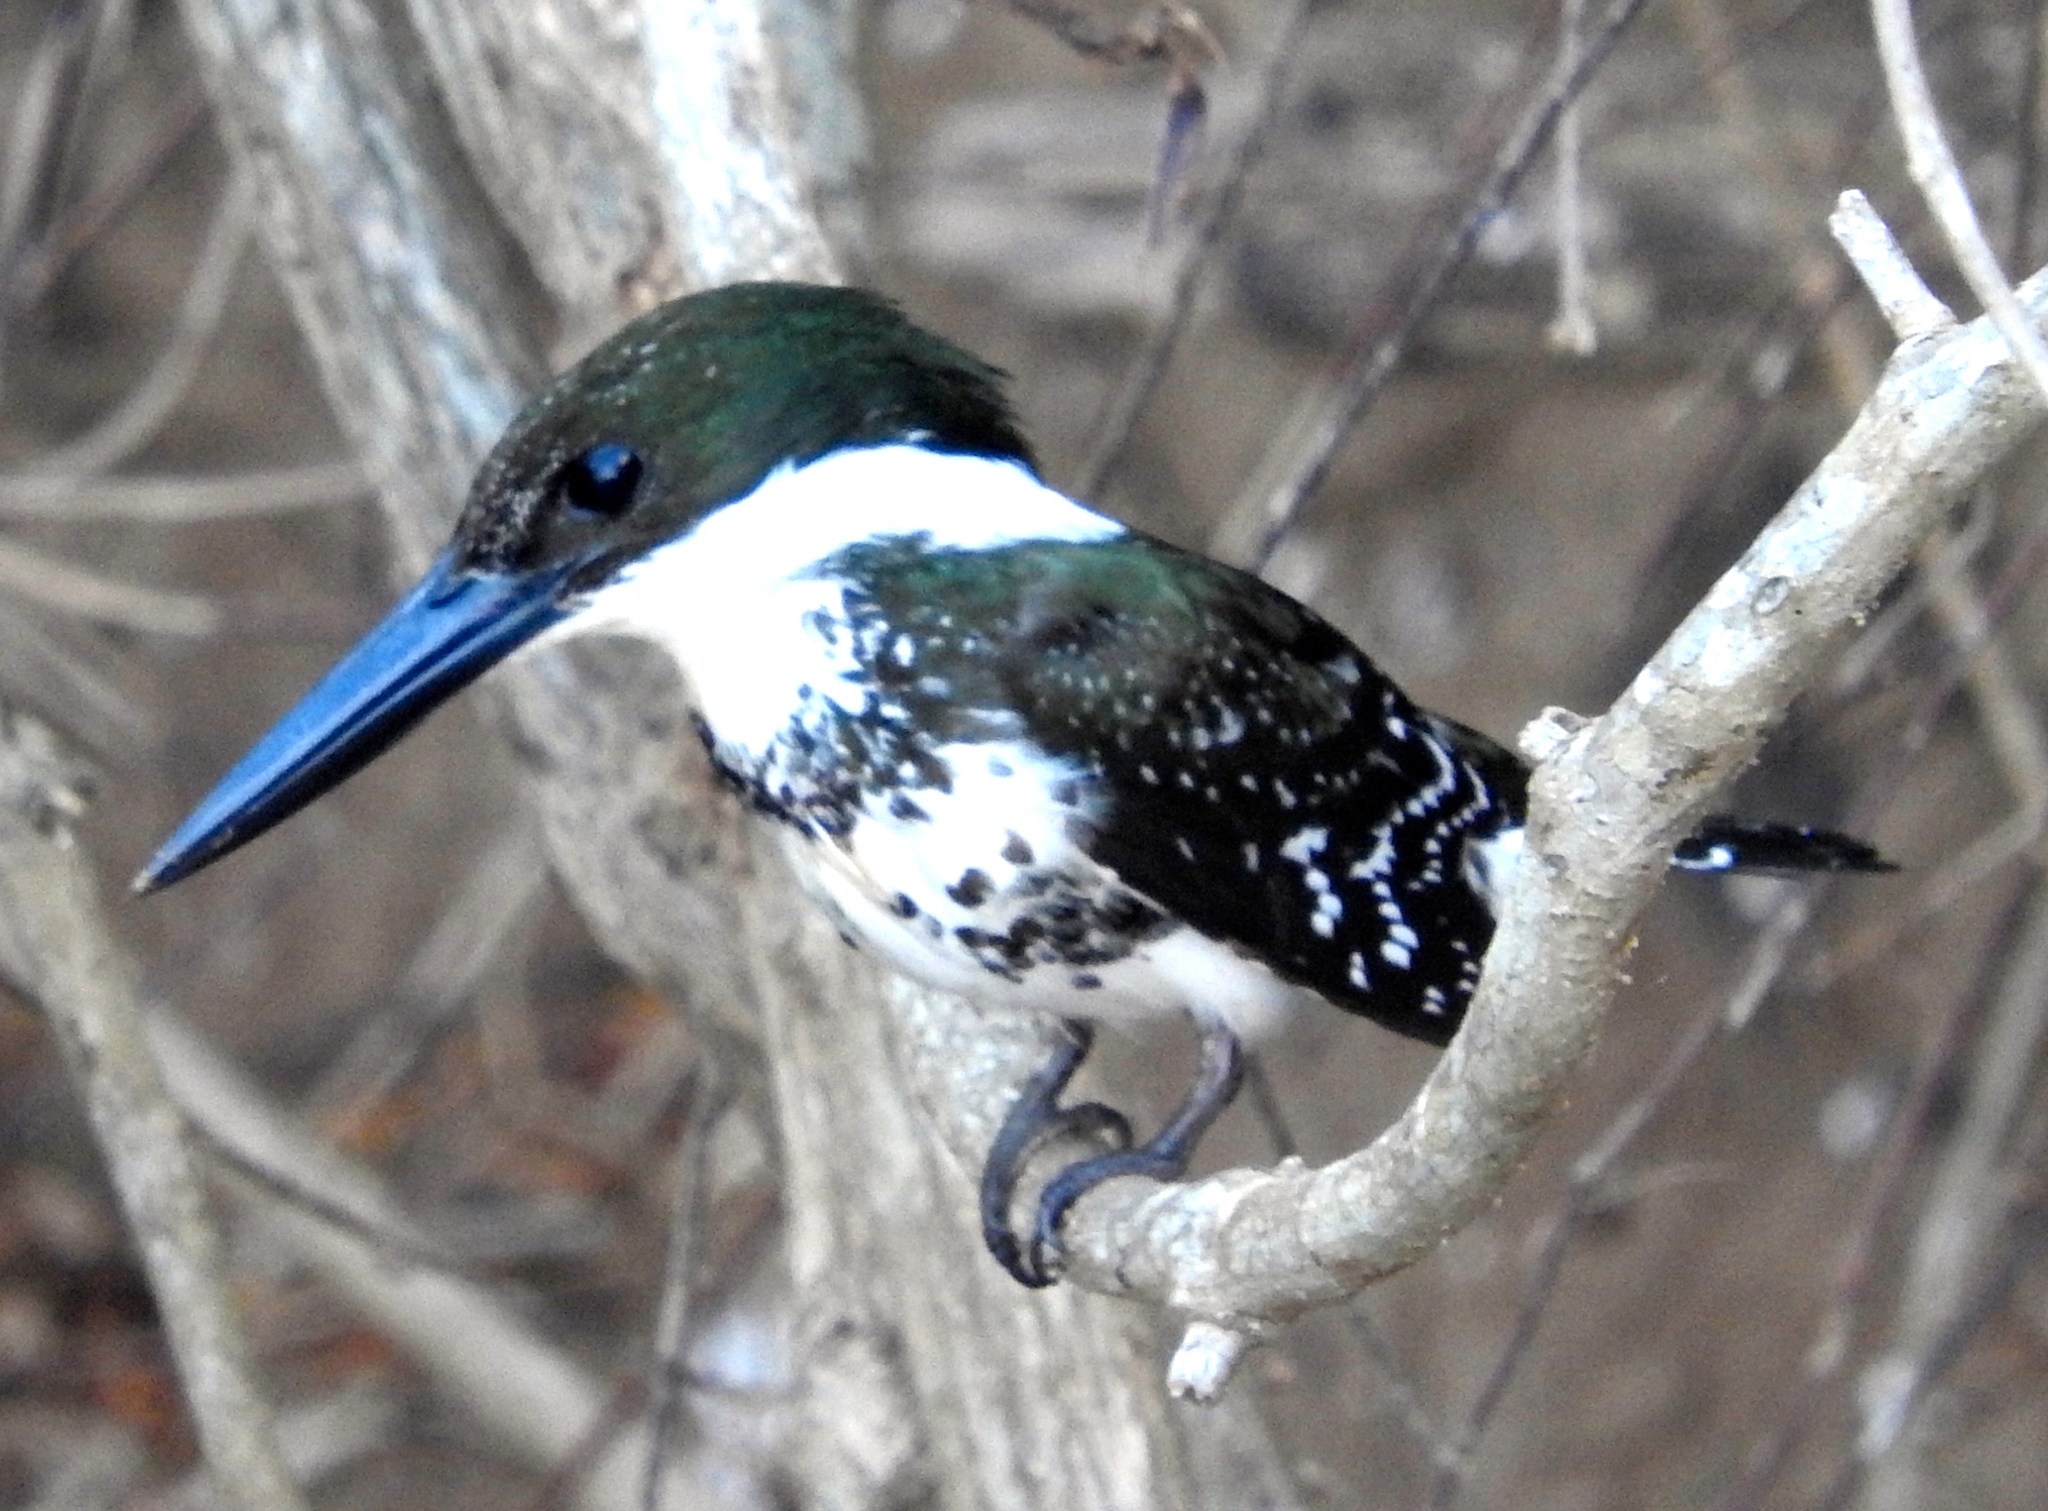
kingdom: Animalia
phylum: Chordata
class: Aves
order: Coraciiformes
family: Alcedinidae
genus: Chloroceryle
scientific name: Chloroceryle americana
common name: Green kingfisher
